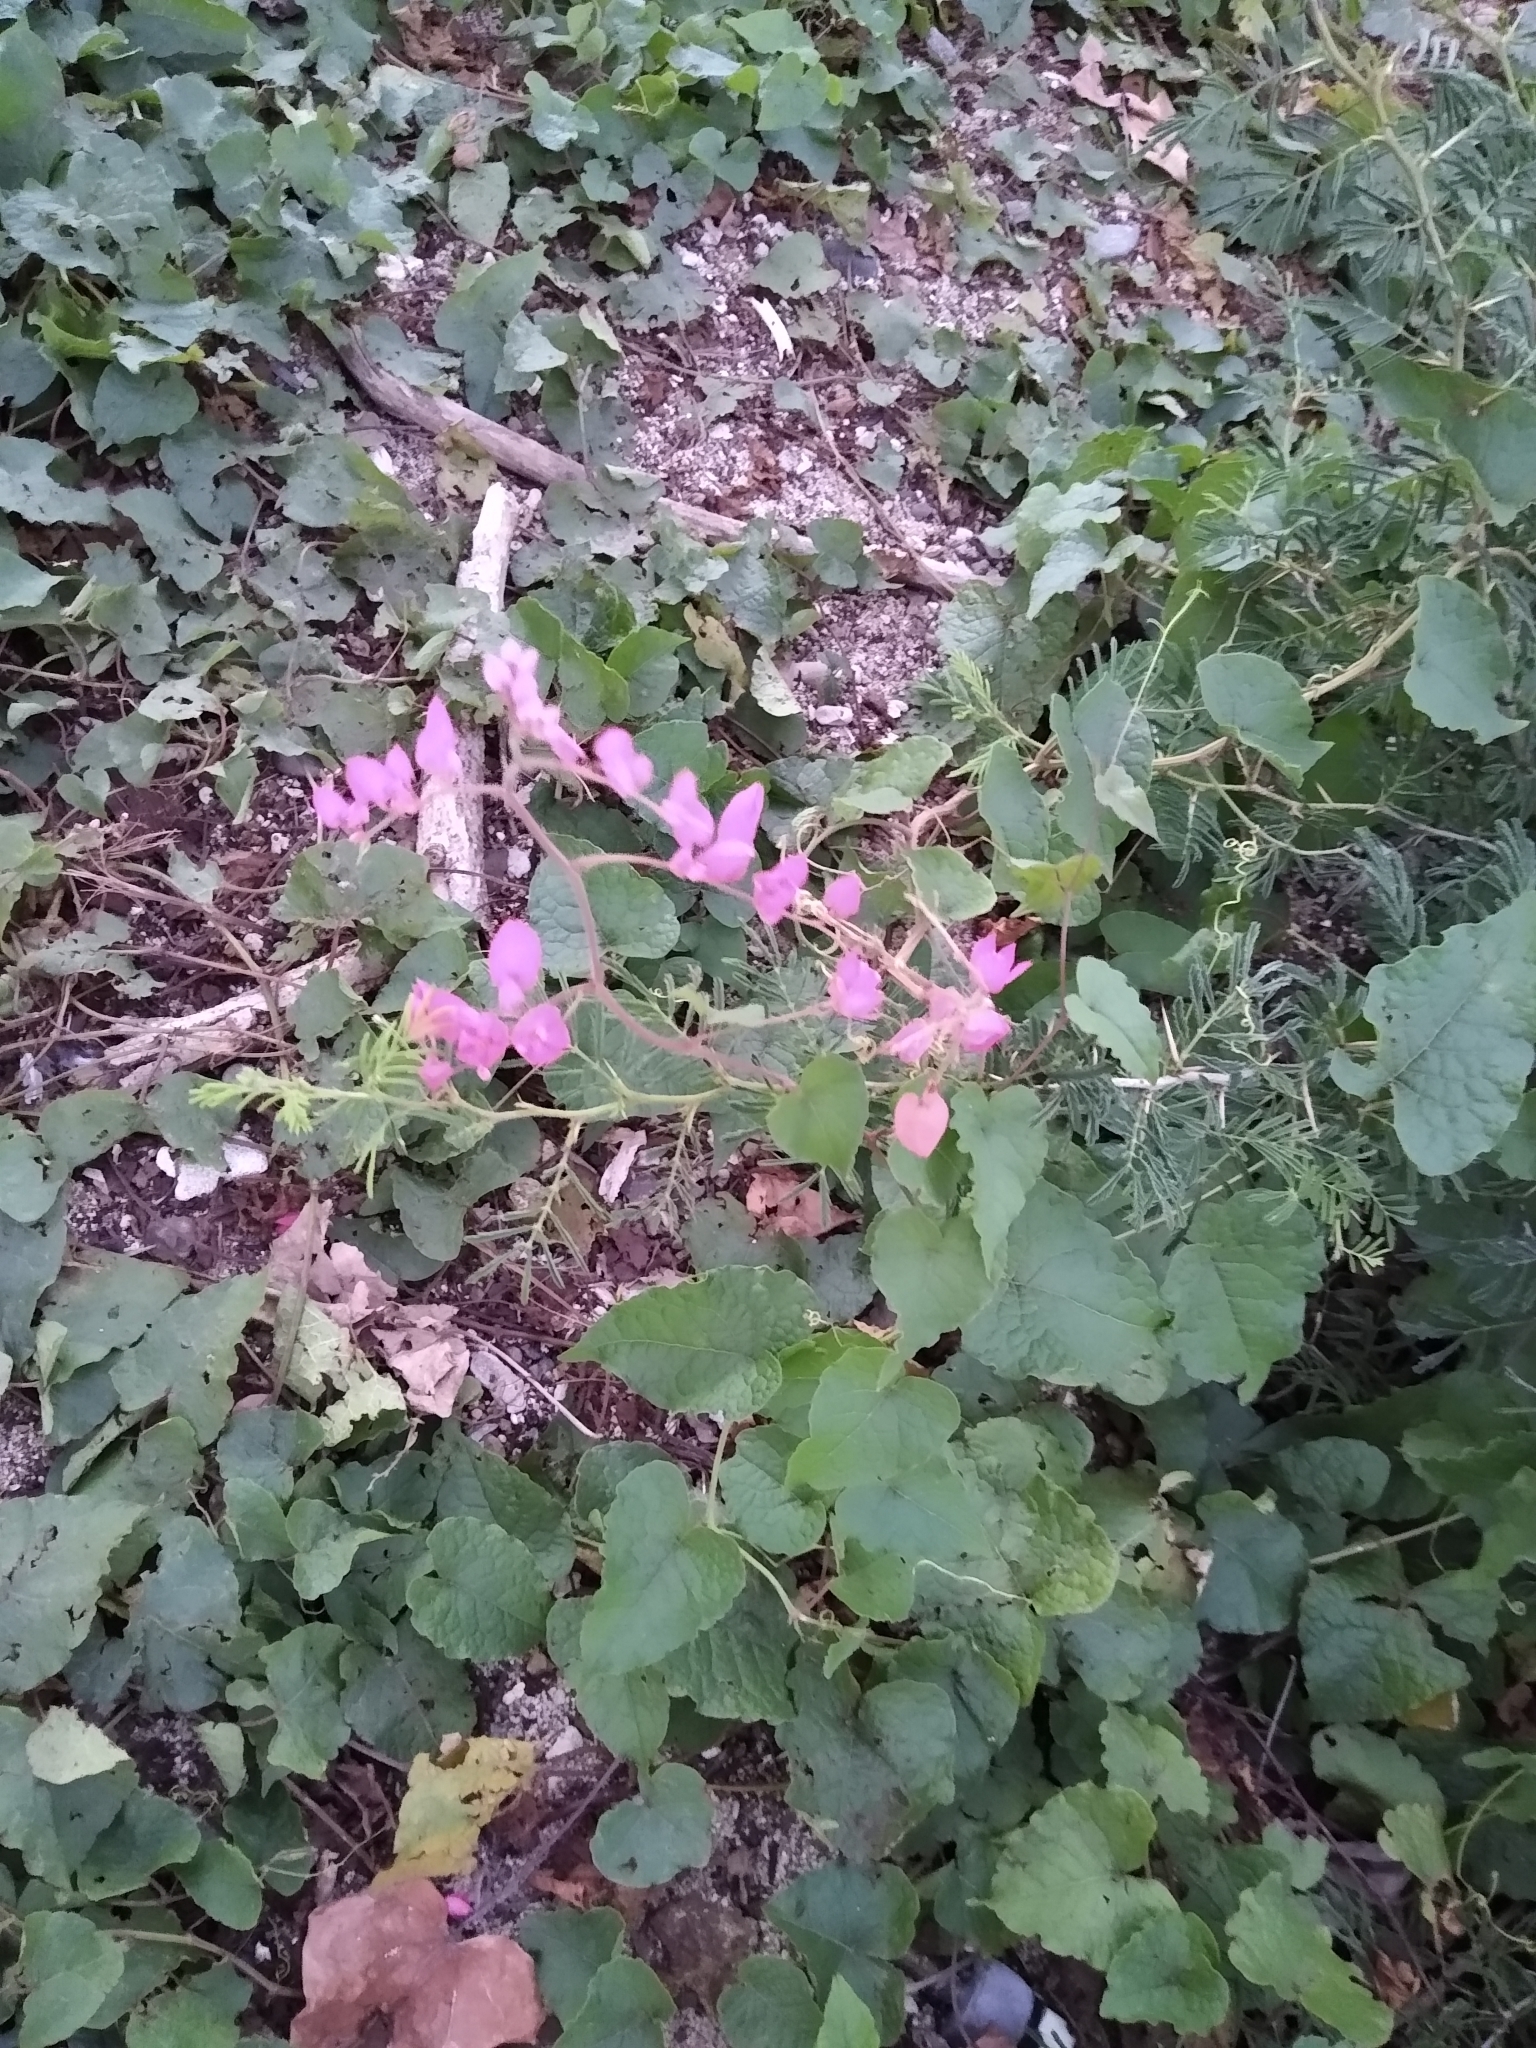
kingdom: Plantae
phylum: Tracheophyta
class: Magnoliopsida
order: Caryophyllales
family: Polygonaceae
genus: Antigonon
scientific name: Antigonon leptopus
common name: Coral vine
